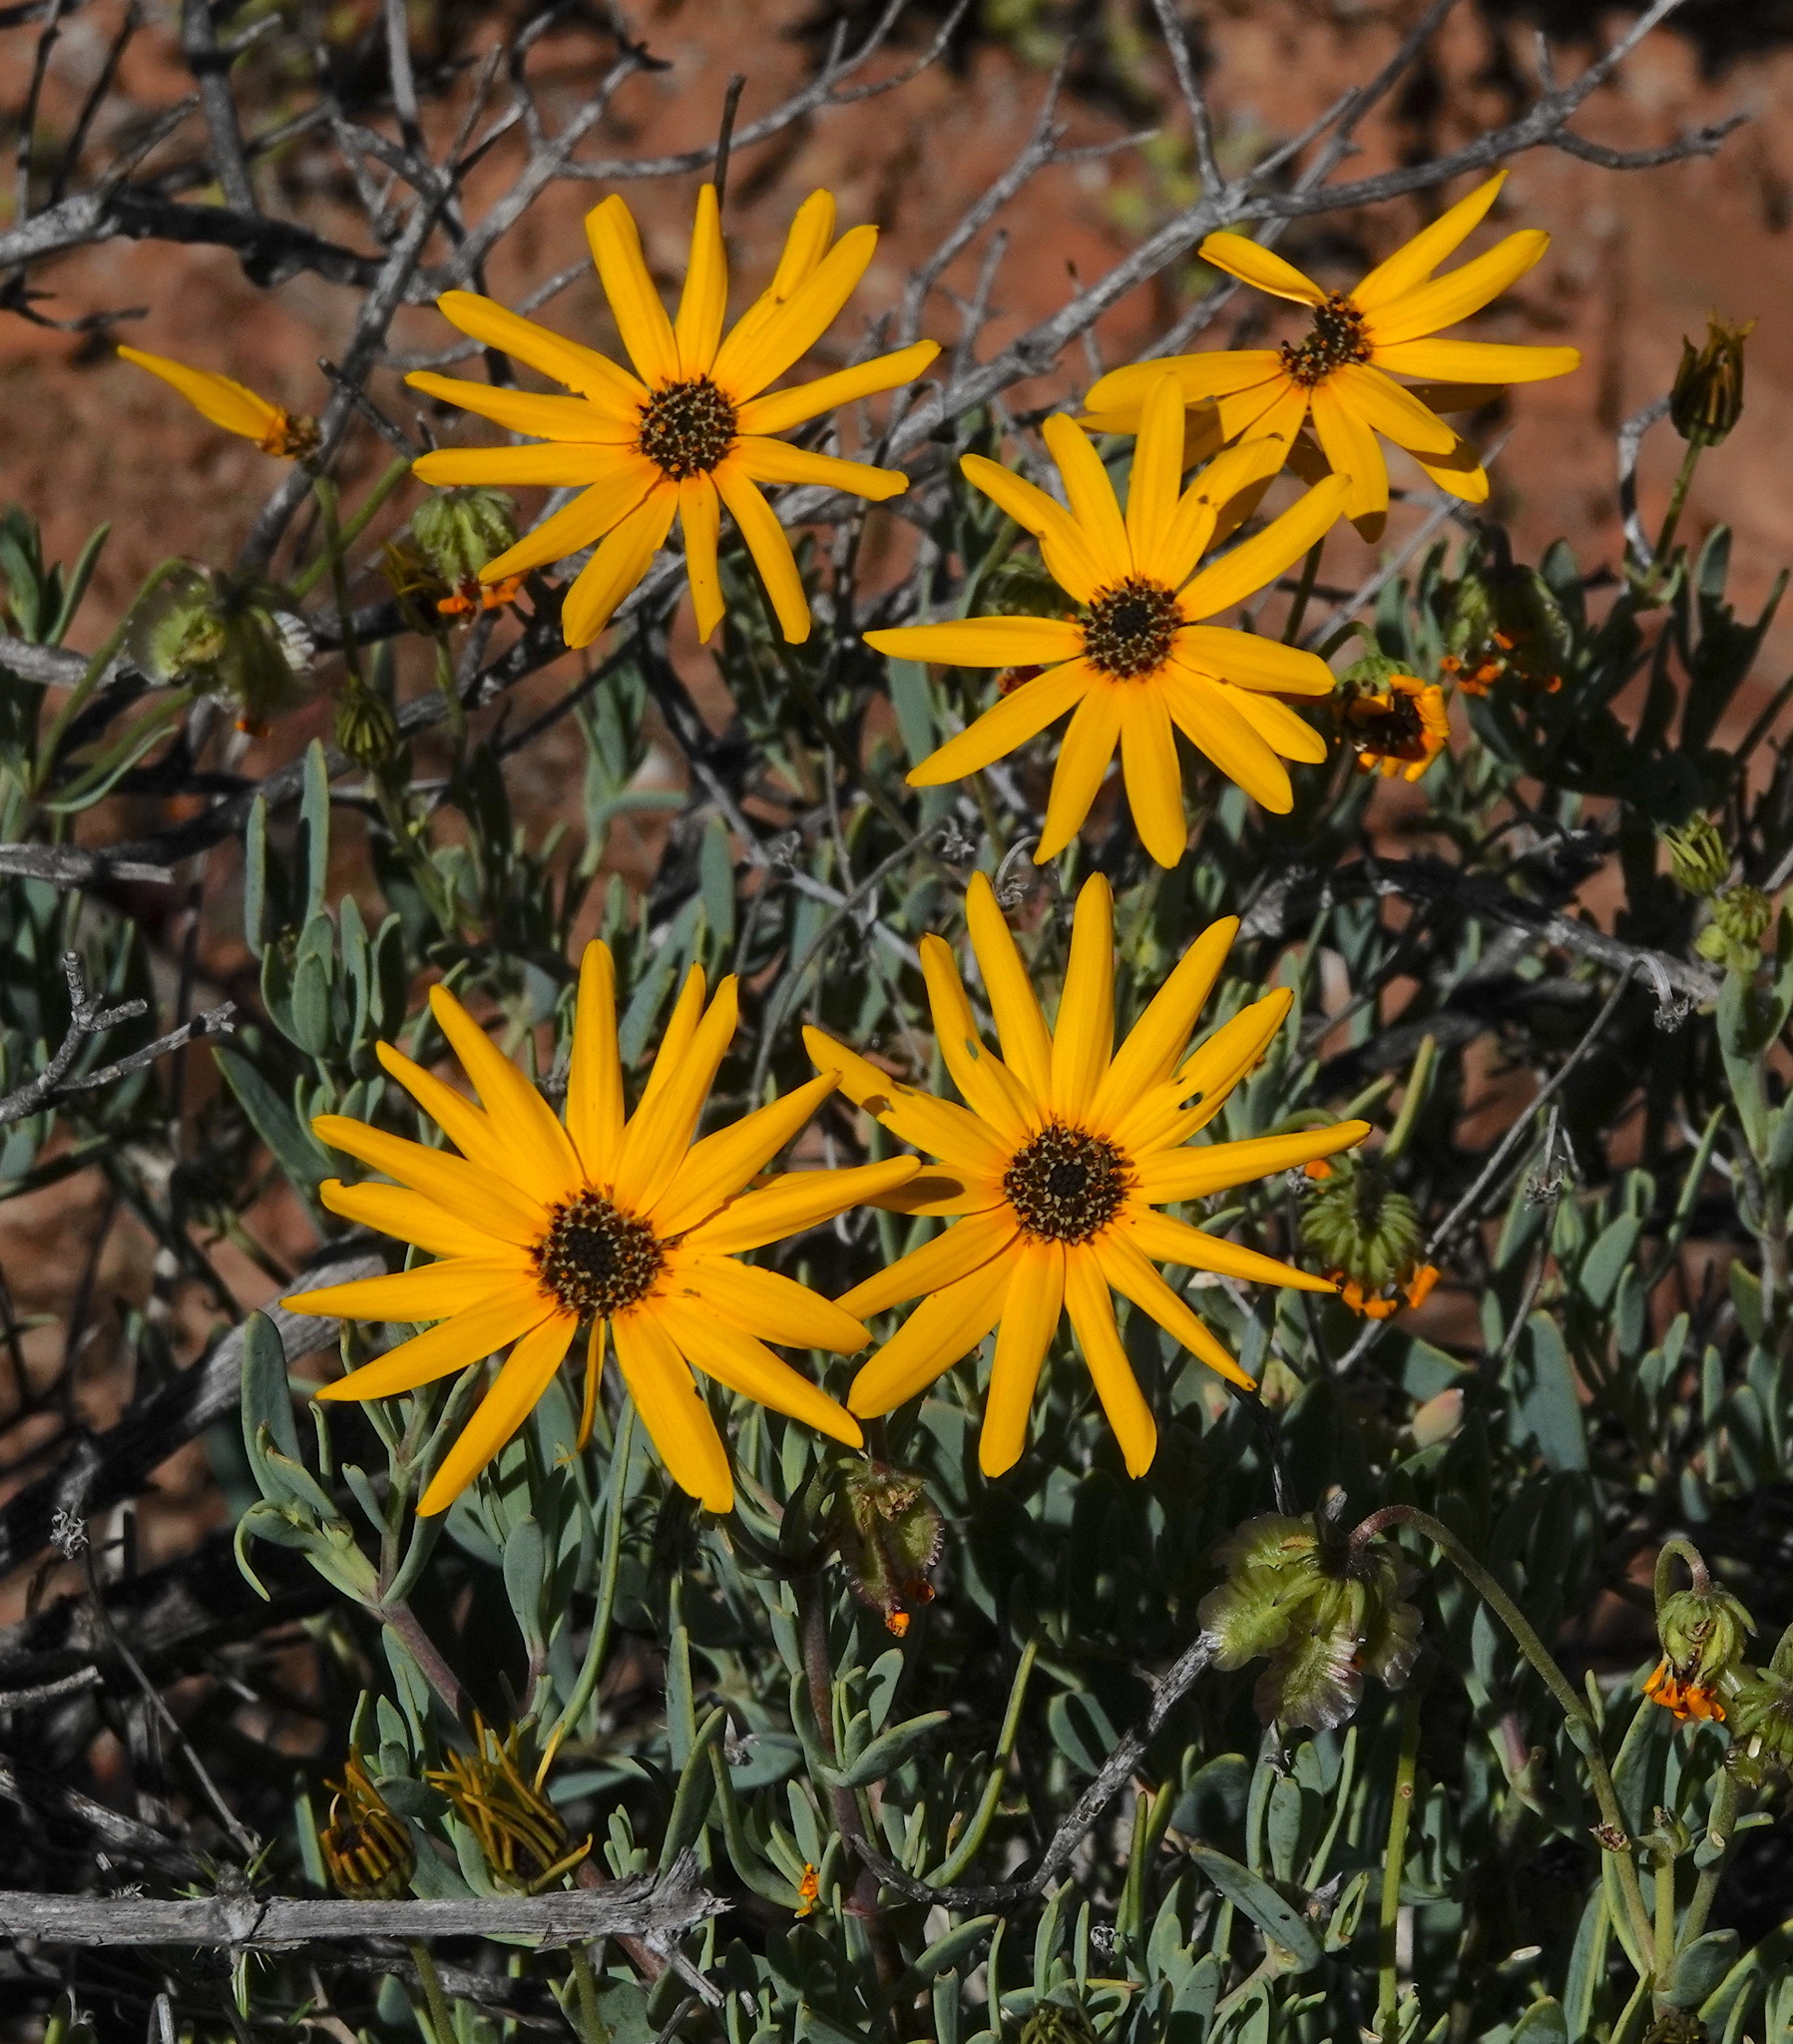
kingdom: Plantae
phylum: Tracheophyta
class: Magnoliopsida
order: Asterales
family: Asteraceae
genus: Osteospermum
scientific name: Osteospermum sinuatum
